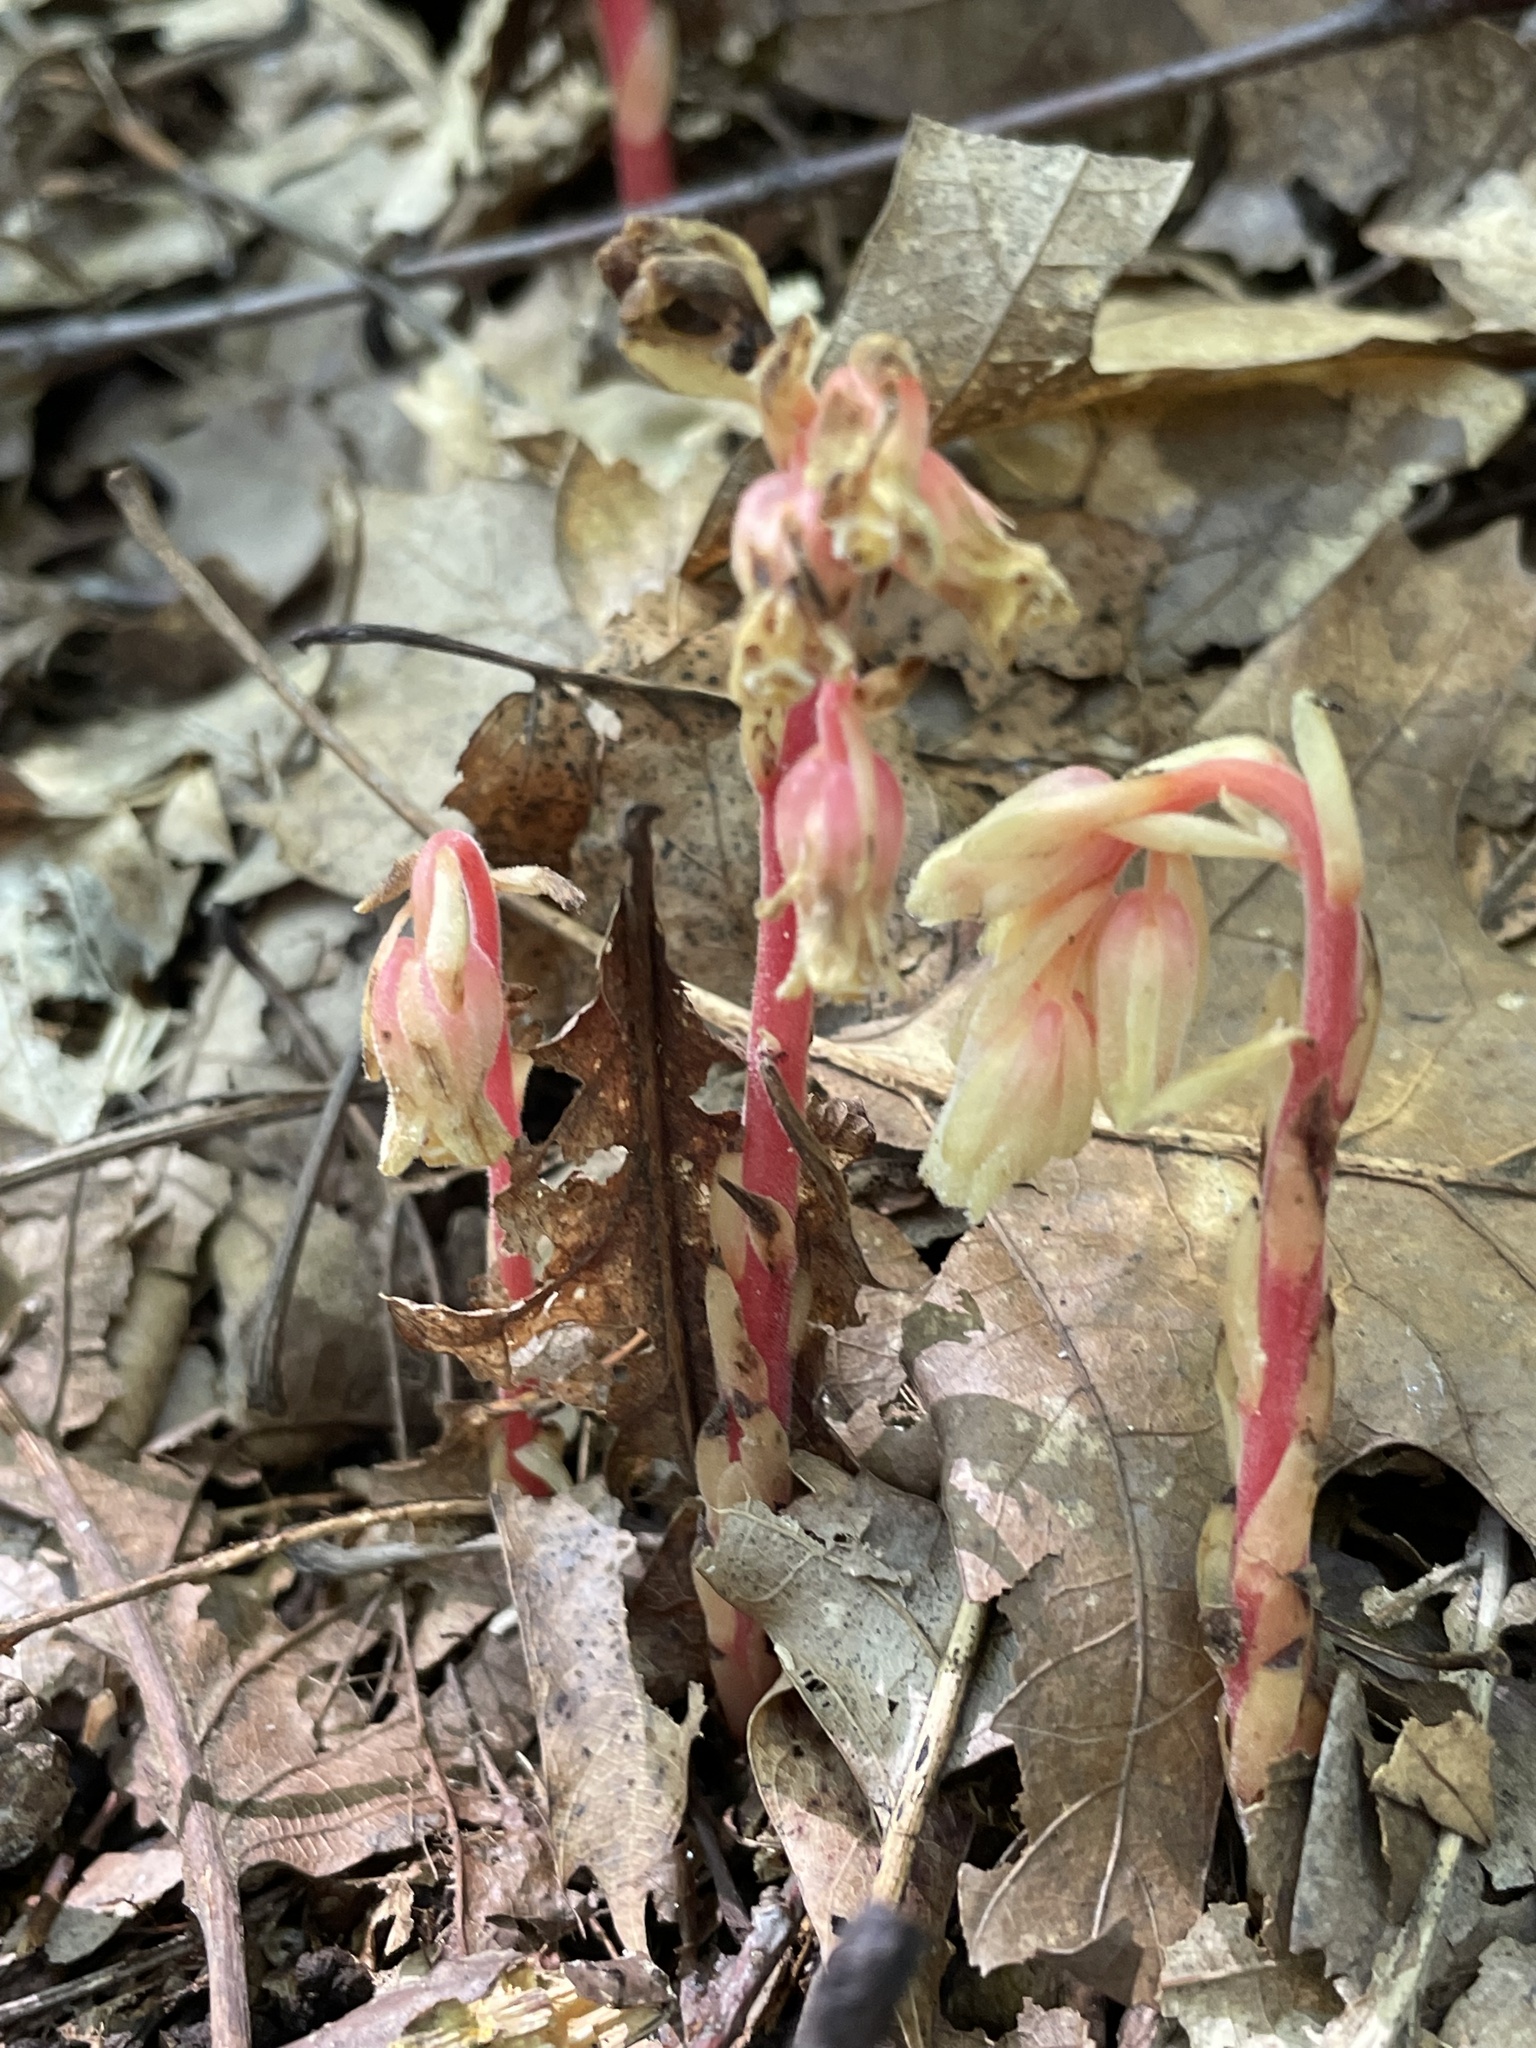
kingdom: Plantae
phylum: Tracheophyta
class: Magnoliopsida
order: Ericales
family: Ericaceae
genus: Hypopitys
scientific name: Hypopitys monotropa
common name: Yellow bird's-nest
